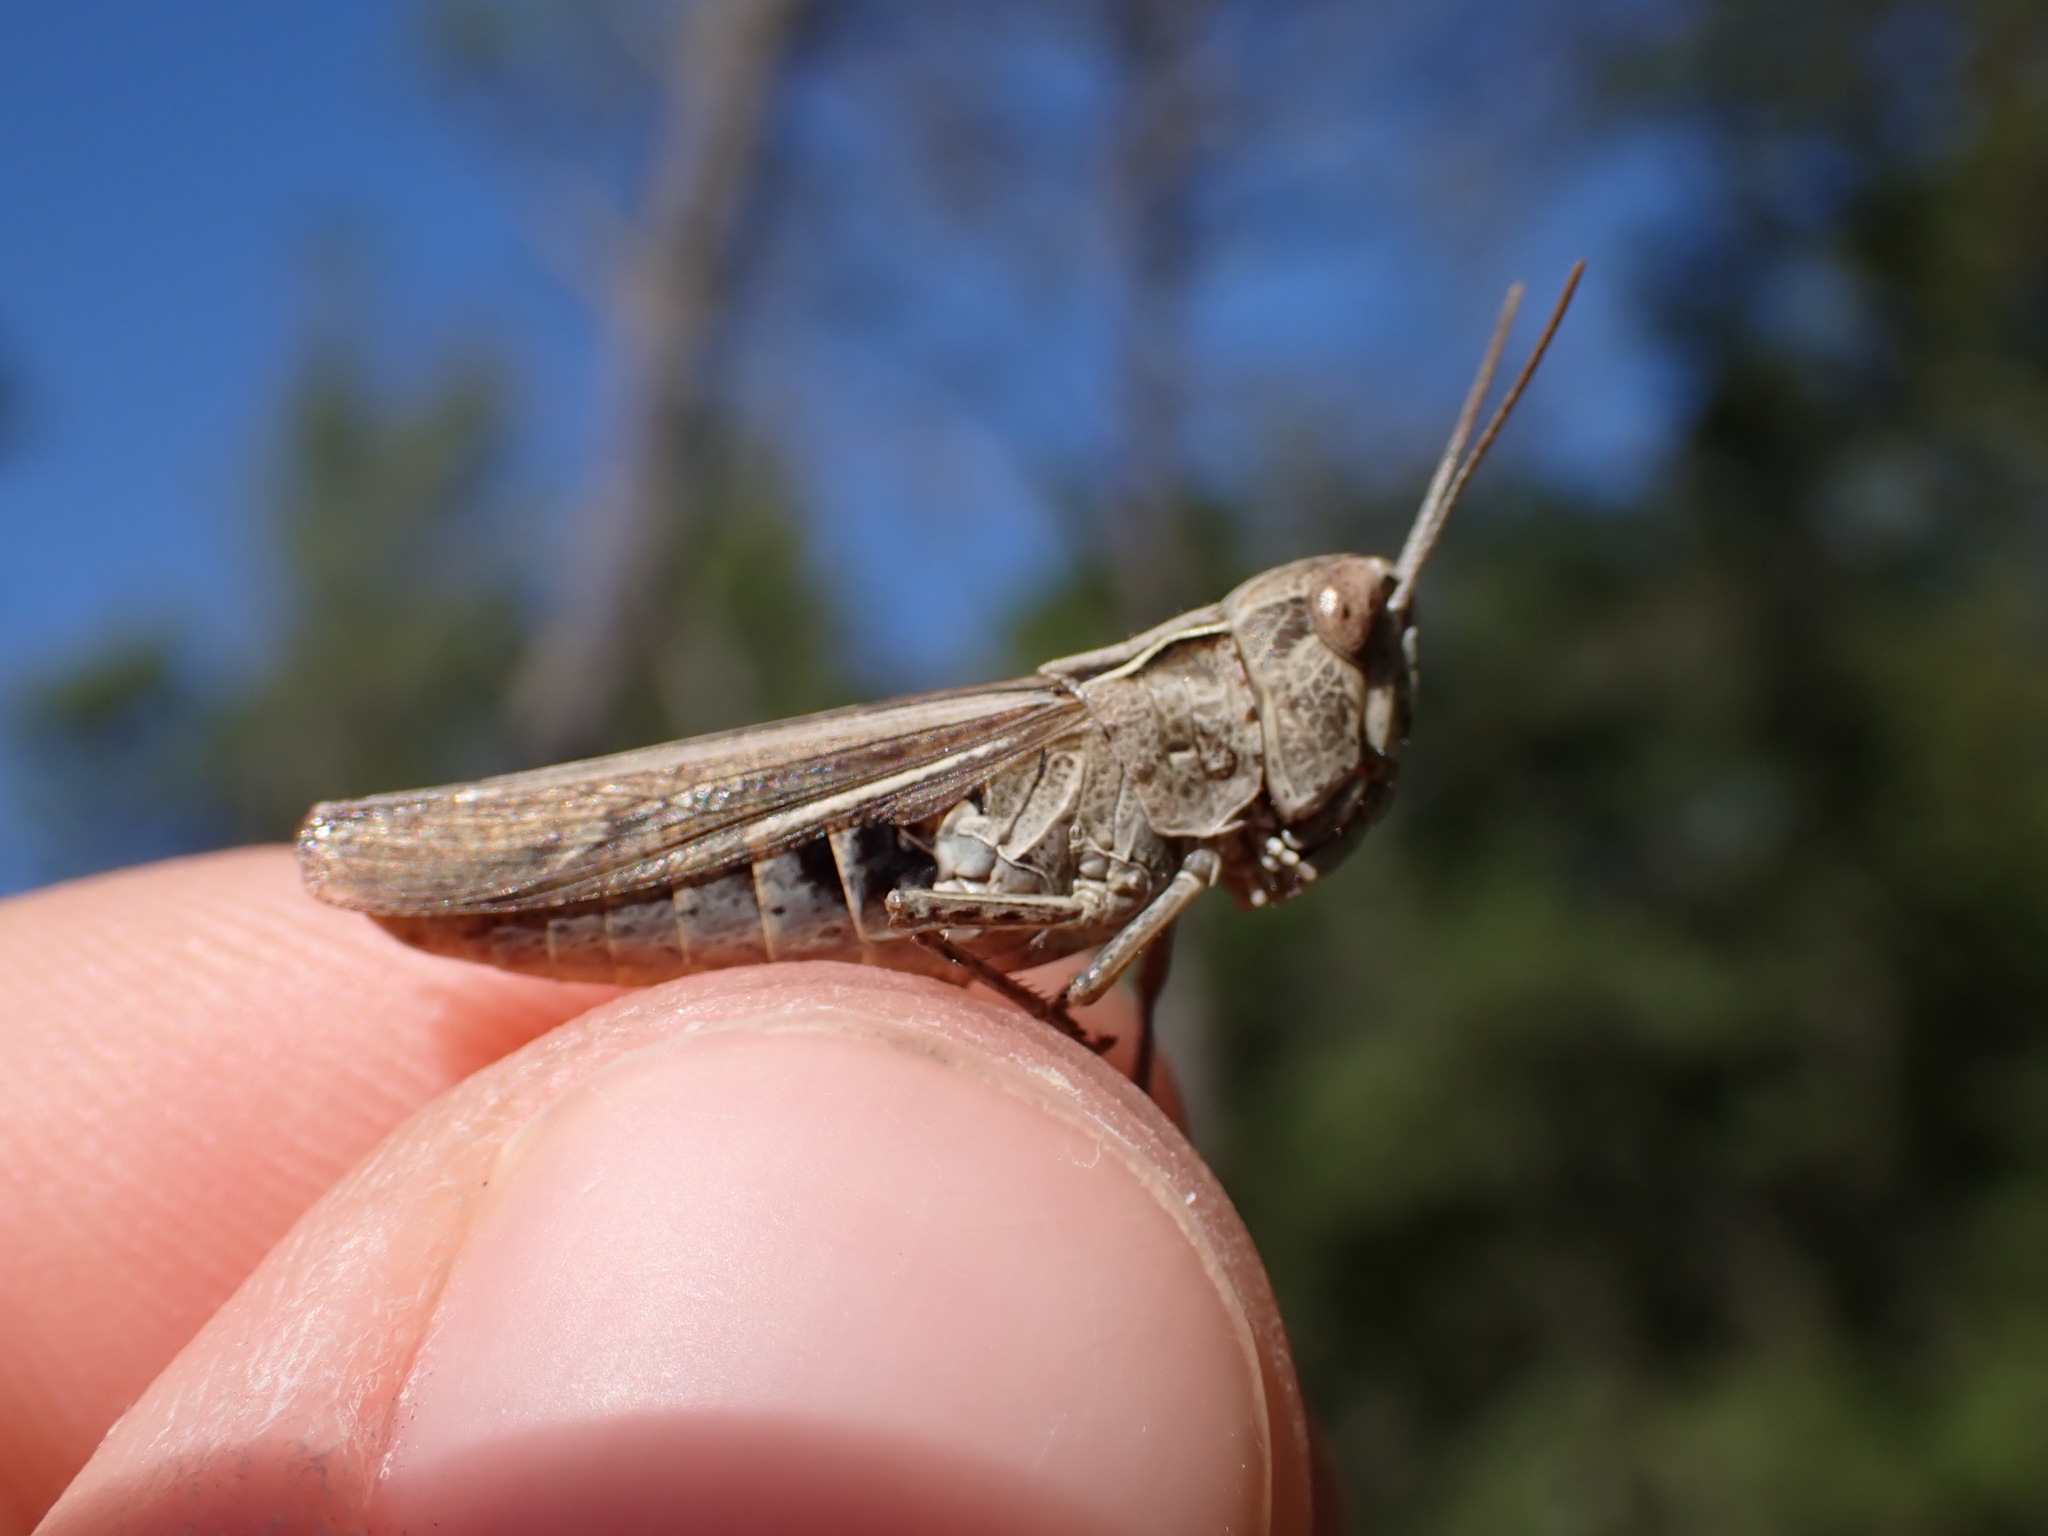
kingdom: Animalia
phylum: Arthropoda
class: Insecta
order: Orthoptera
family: Acrididae
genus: Chorthippus
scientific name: Chorthippus vagans
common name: Heath grasshopper
